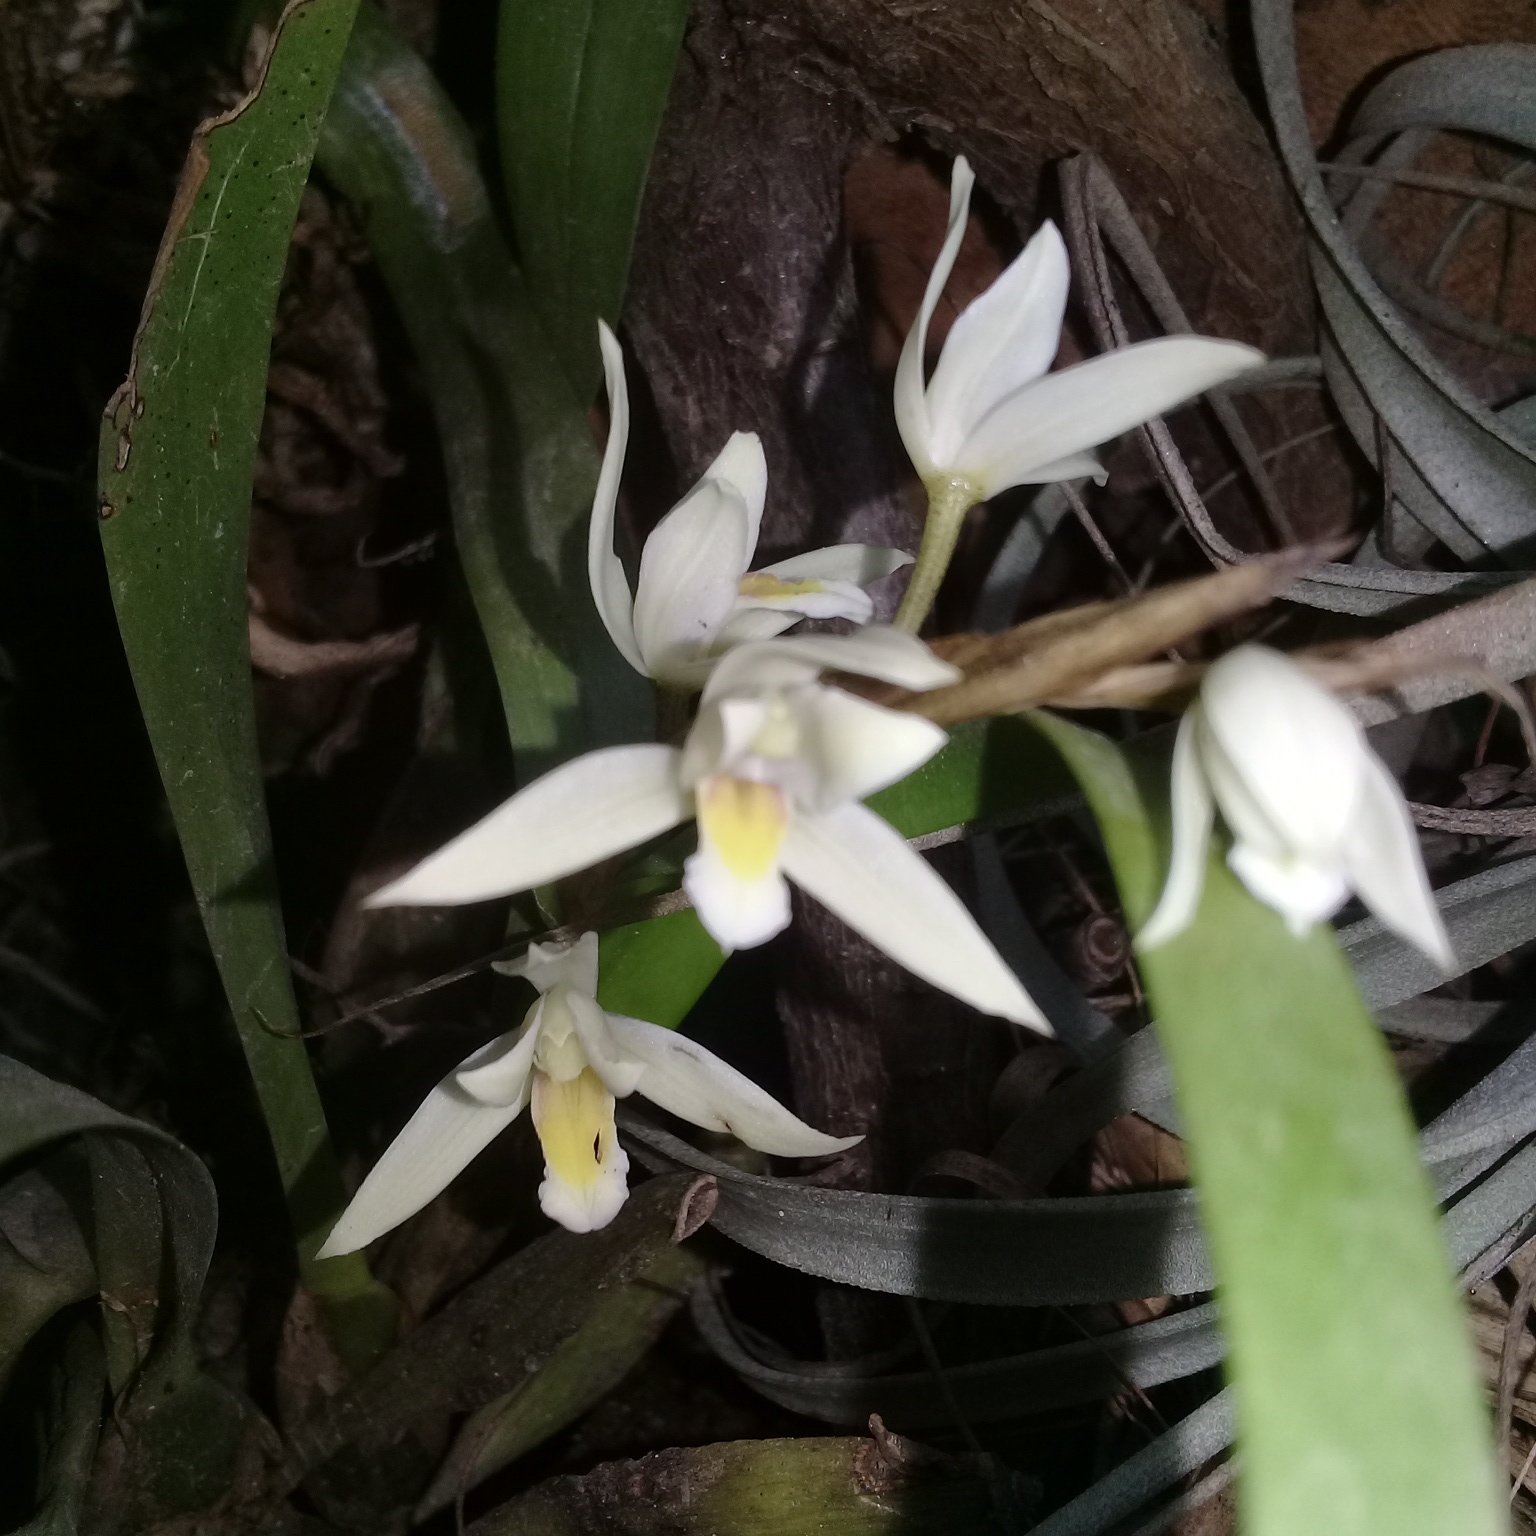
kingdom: Plantae
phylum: Tracheophyta
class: Liliopsida
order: Asparagales
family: Orchidaceae
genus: Nidema
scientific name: Nidema boothii
